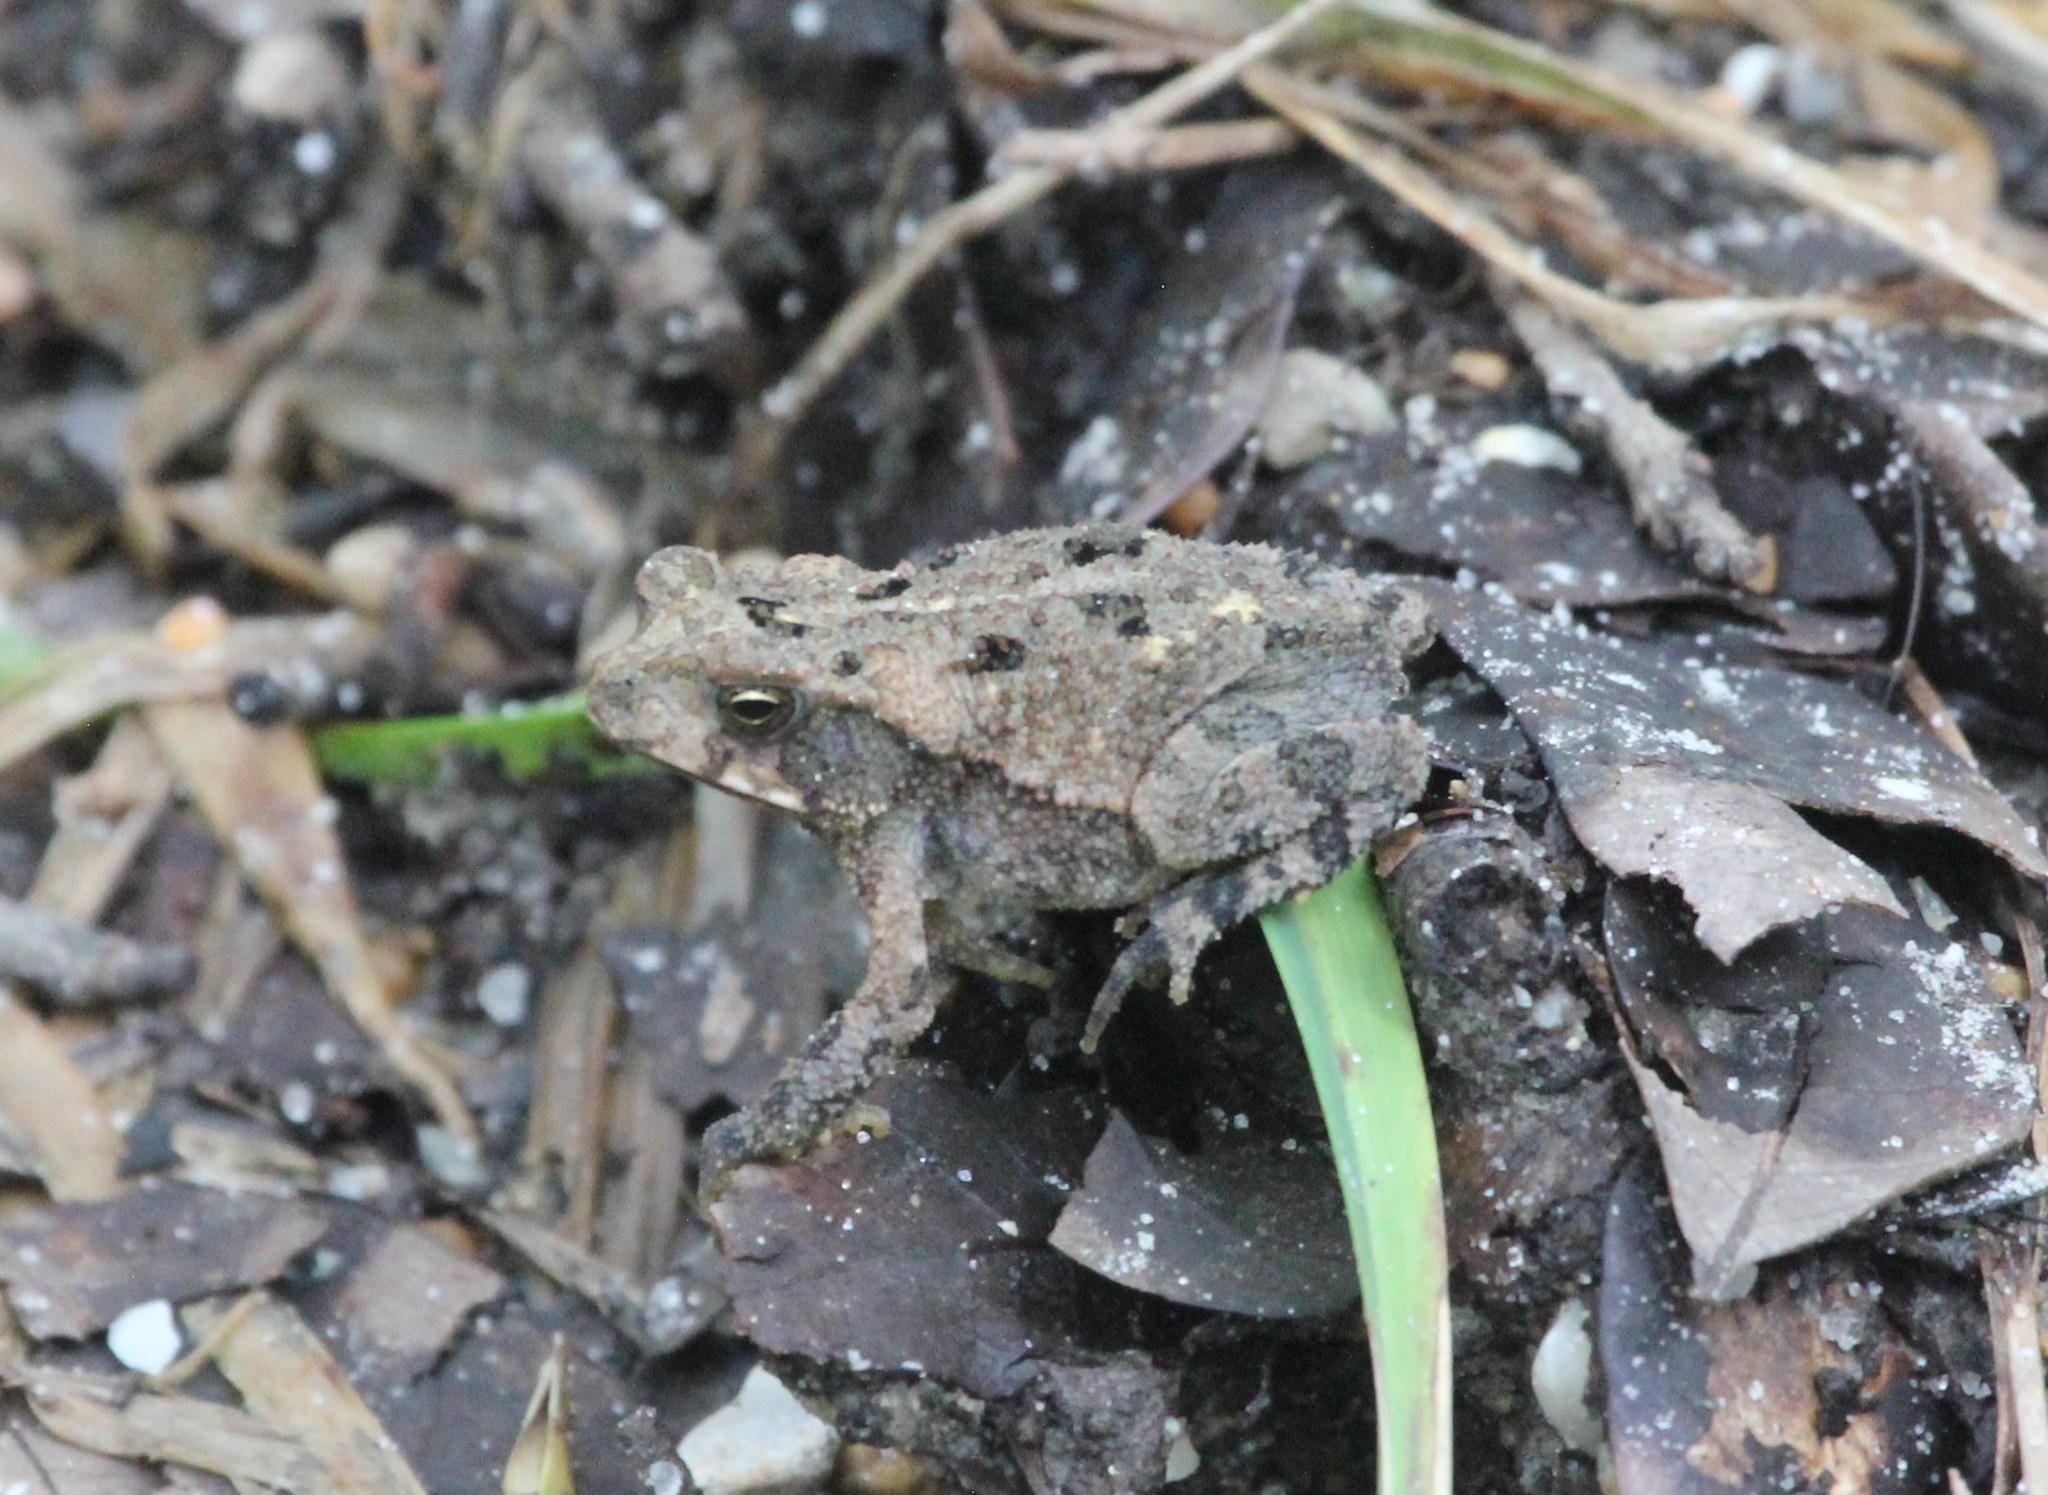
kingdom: Animalia
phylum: Chordata
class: Amphibia
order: Anura
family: Bufonidae
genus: Incilius
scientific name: Incilius nebulifer
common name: Gulf coast toad
